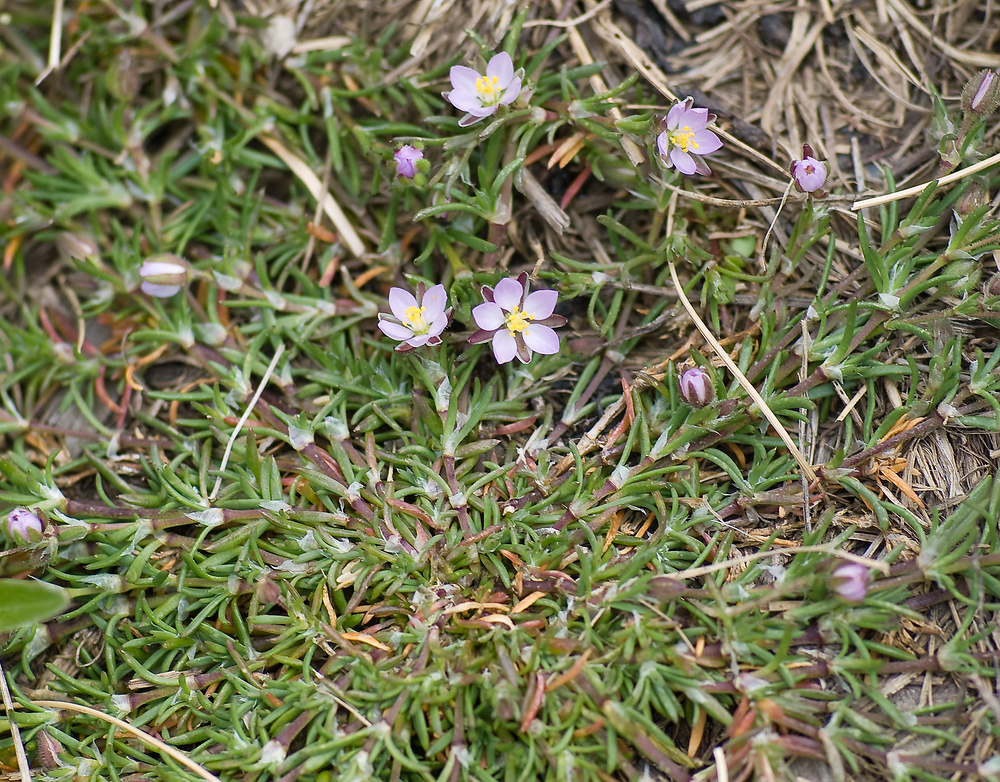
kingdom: Plantae
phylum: Tracheophyta
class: Magnoliopsida
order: Caryophyllales
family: Caryophyllaceae
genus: Spergularia
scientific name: Spergularia rubra
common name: Red sand-spurrey
